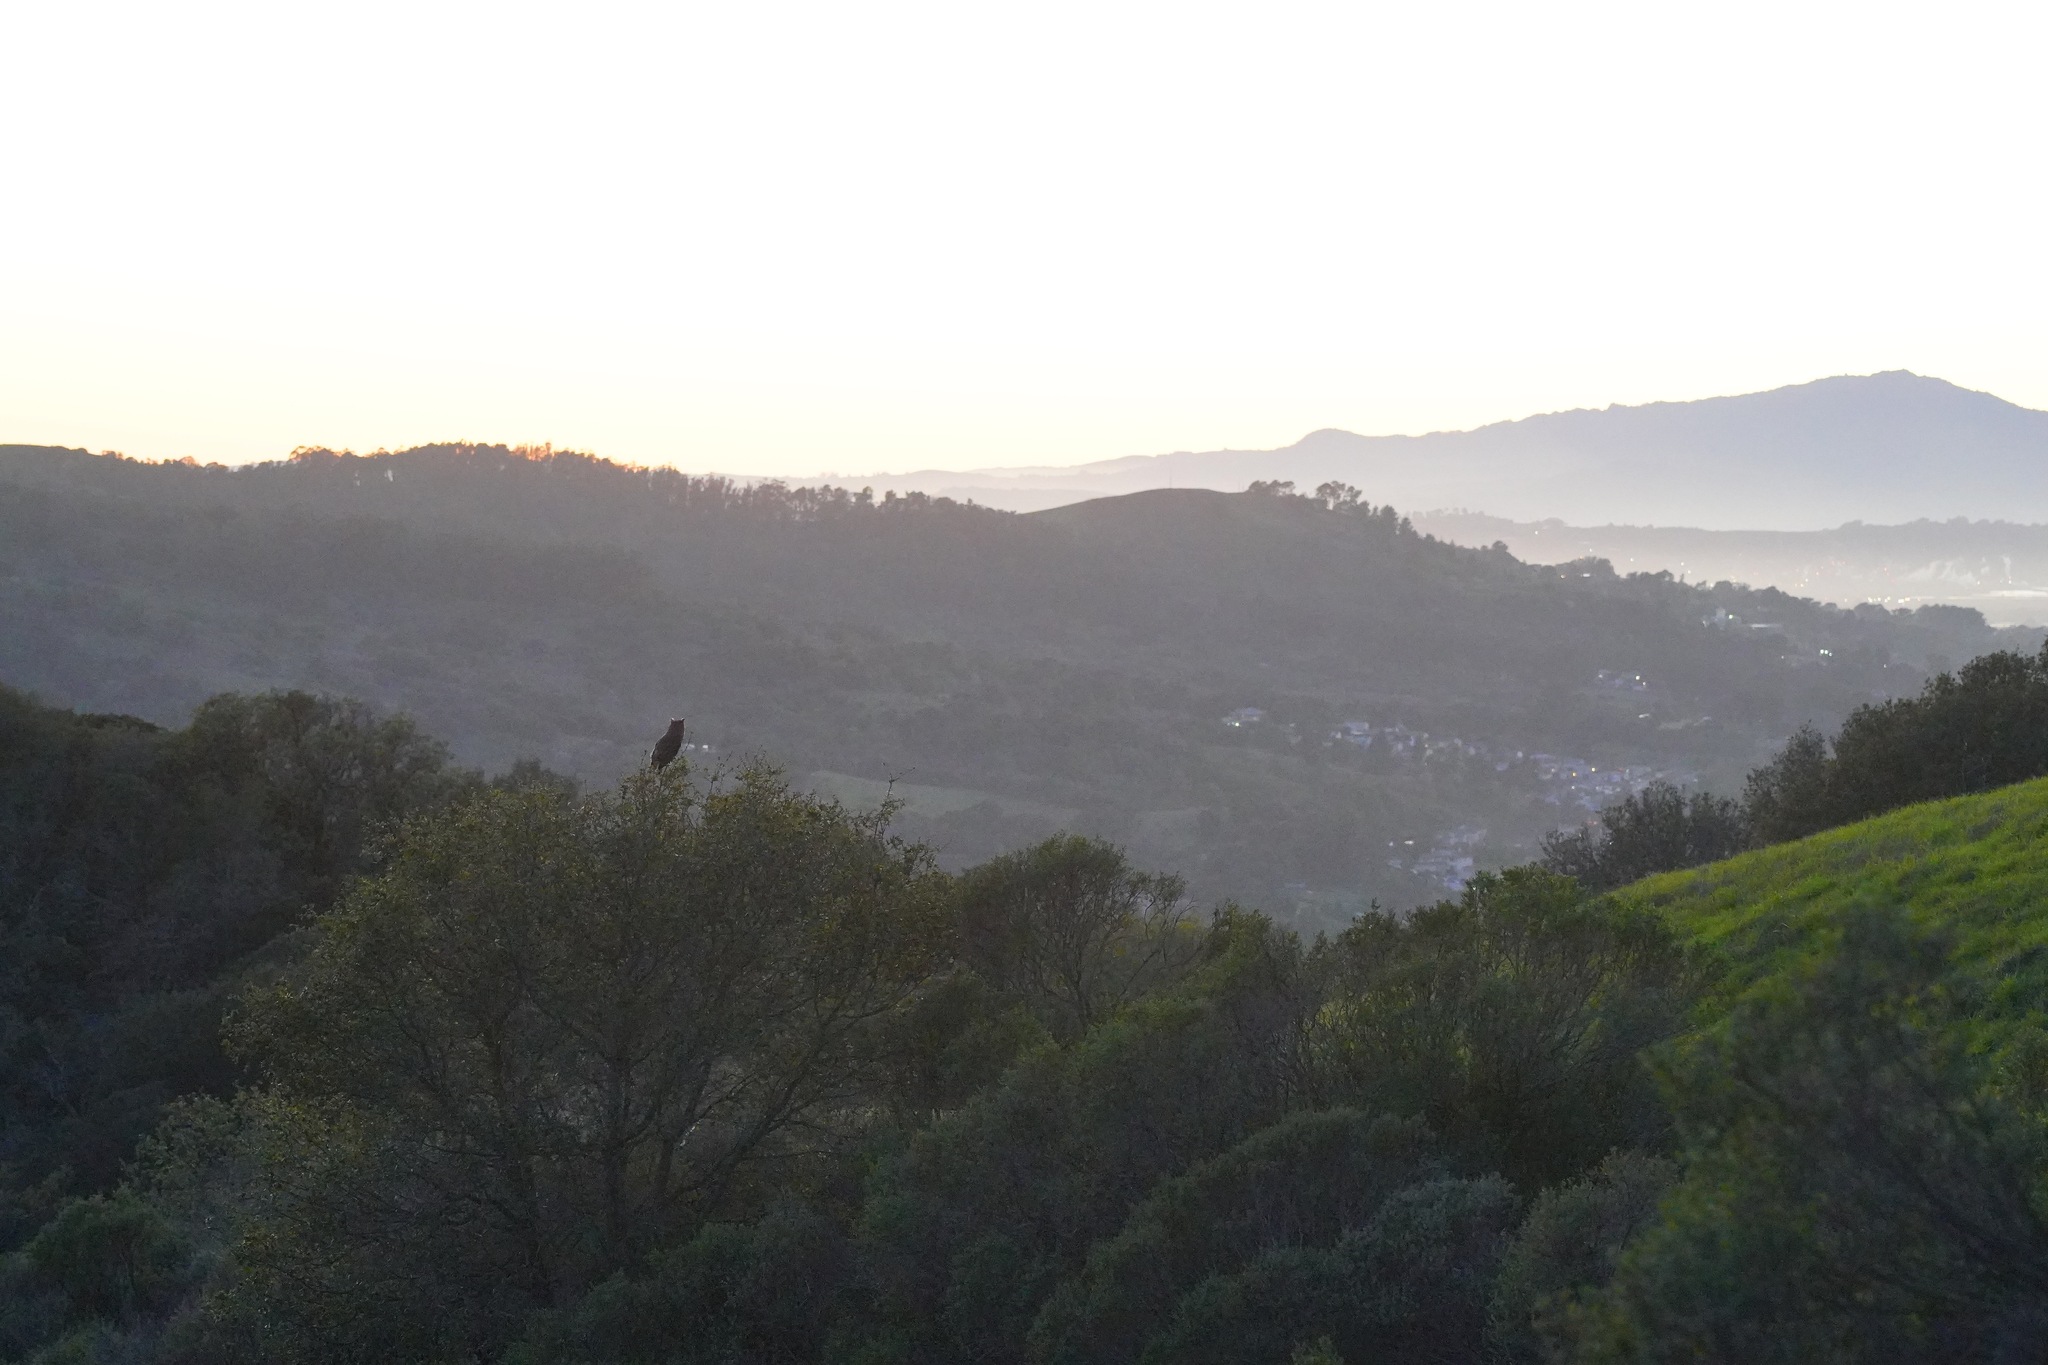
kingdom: Animalia
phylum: Chordata
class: Aves
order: Strigiformes
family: Strigidae
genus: Bubo
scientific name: Bubo virginianus
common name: Great horned owl
